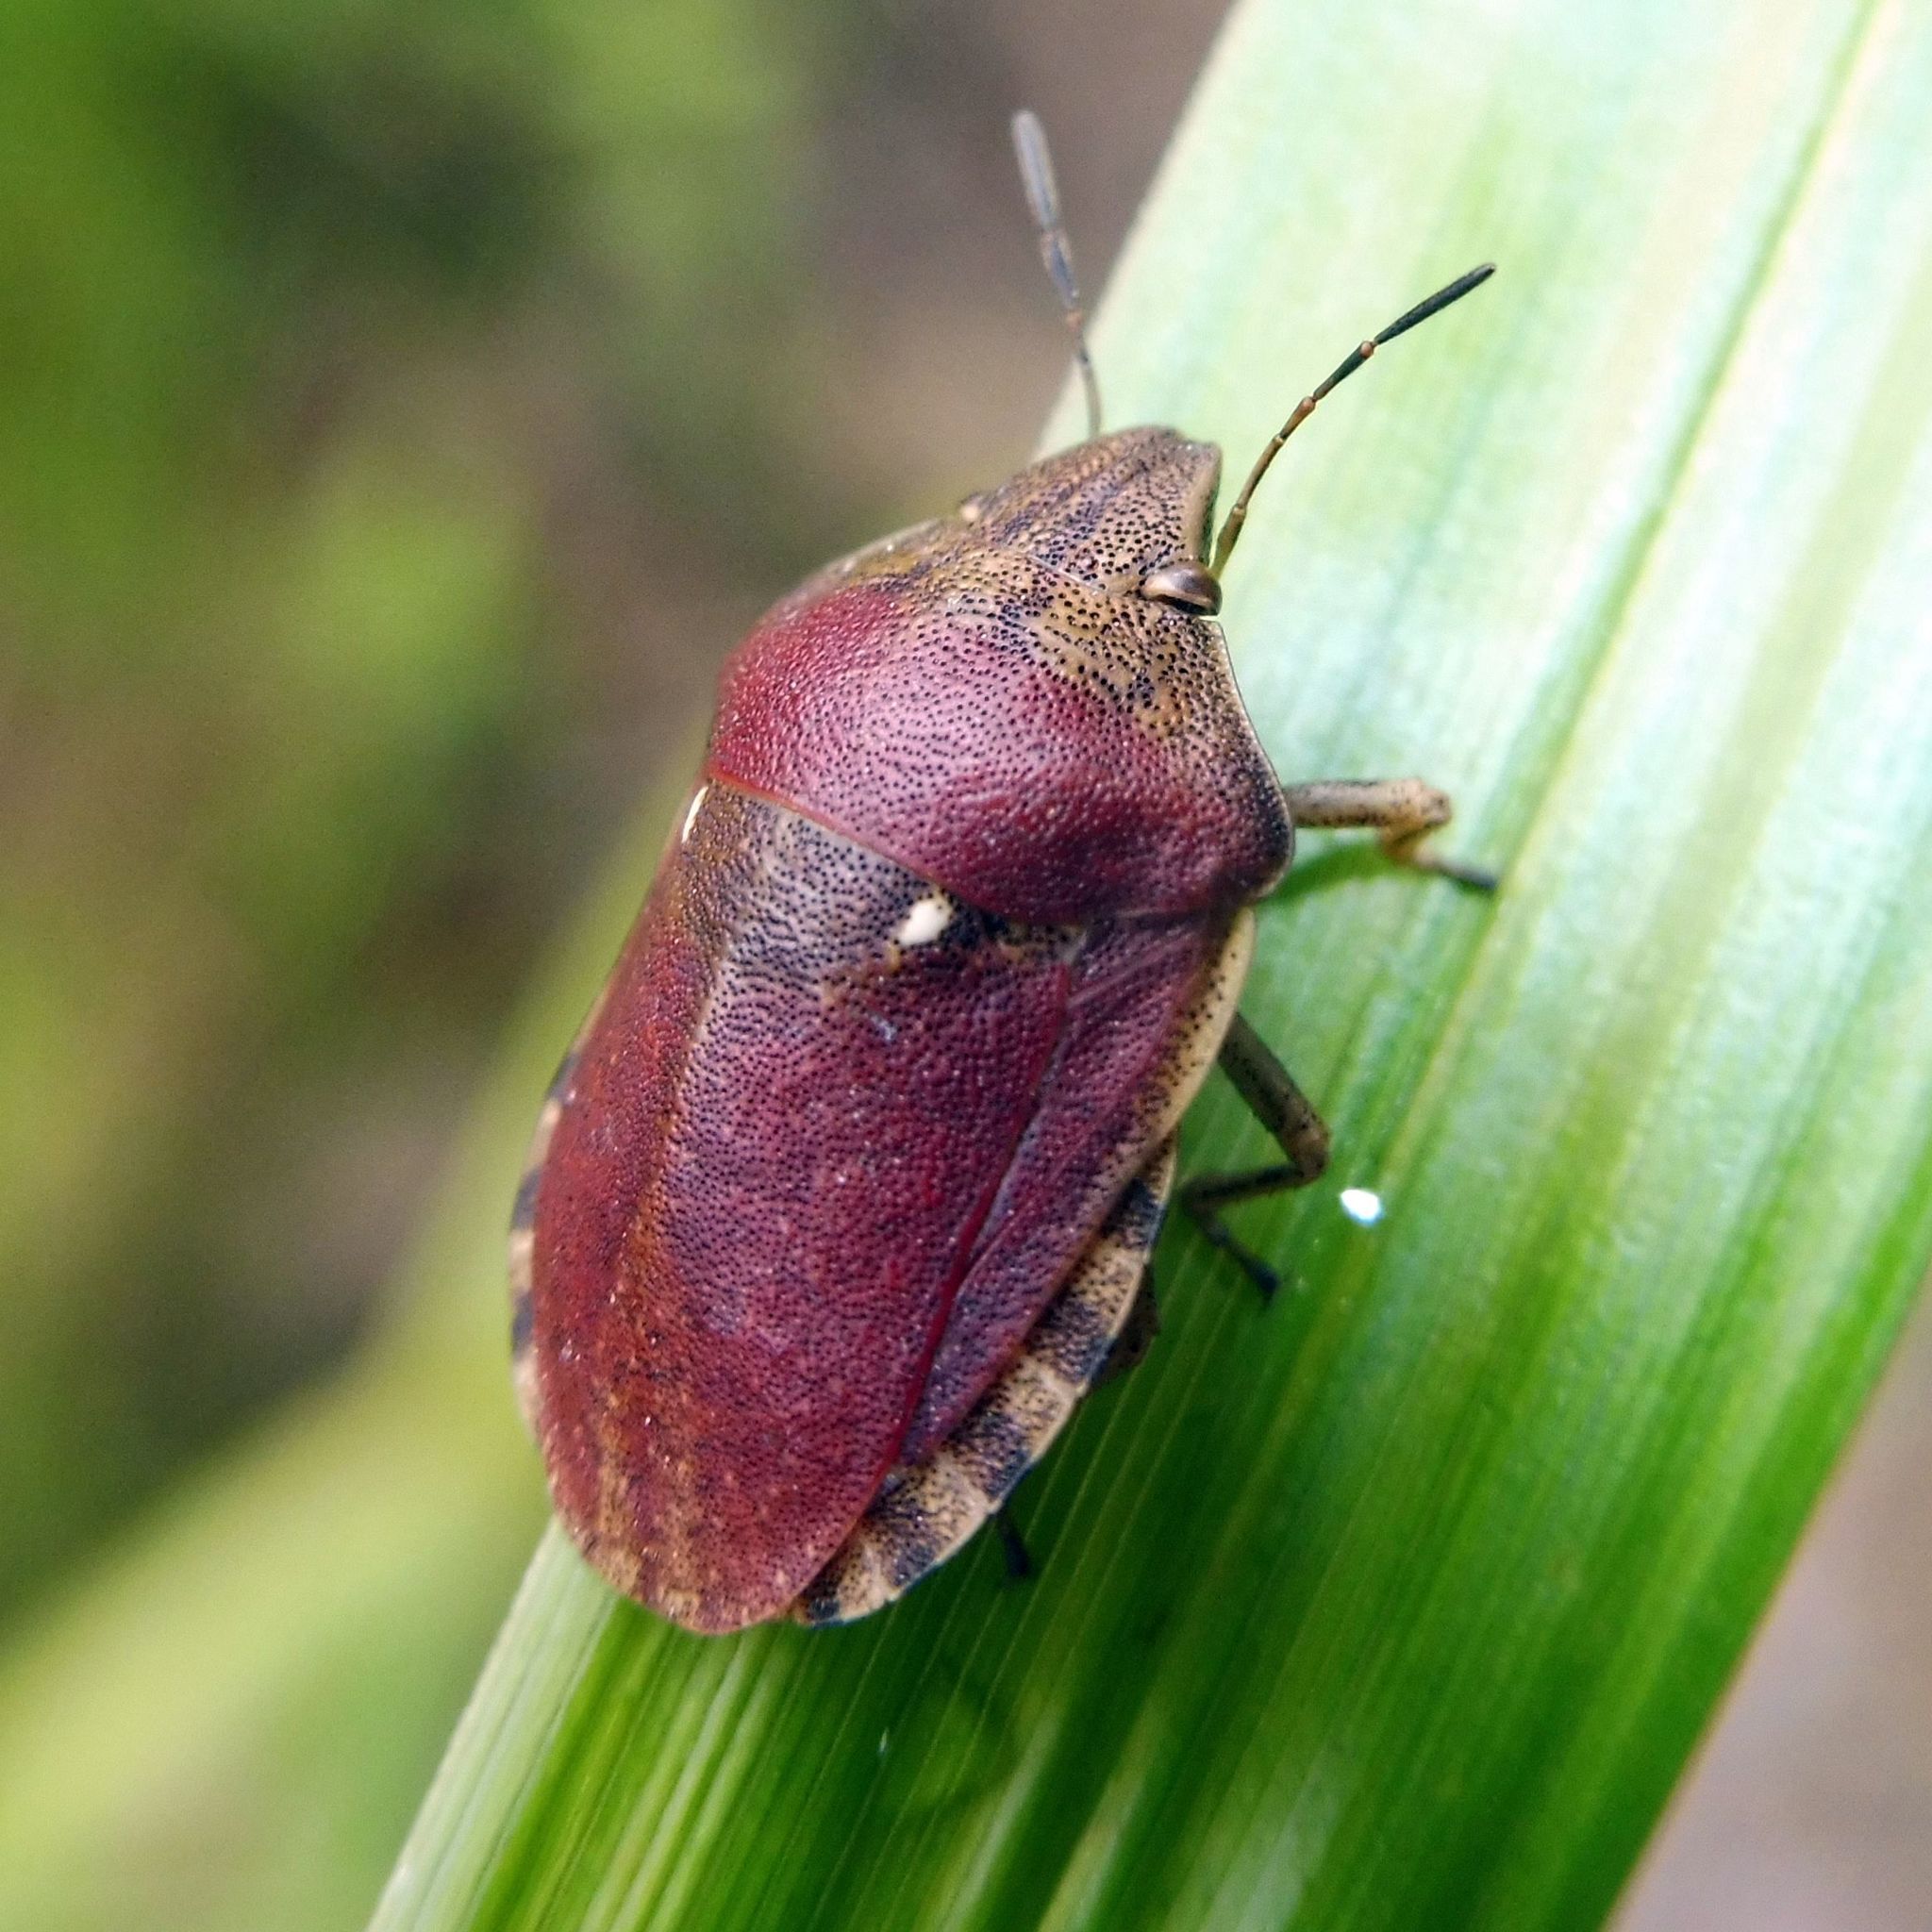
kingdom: Animalia
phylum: Arthropoda
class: Insecta
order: Hemiptera
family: Scutelleridae
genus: Eurygaster
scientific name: Eurygaster testudinaria
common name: Tortoise bug
